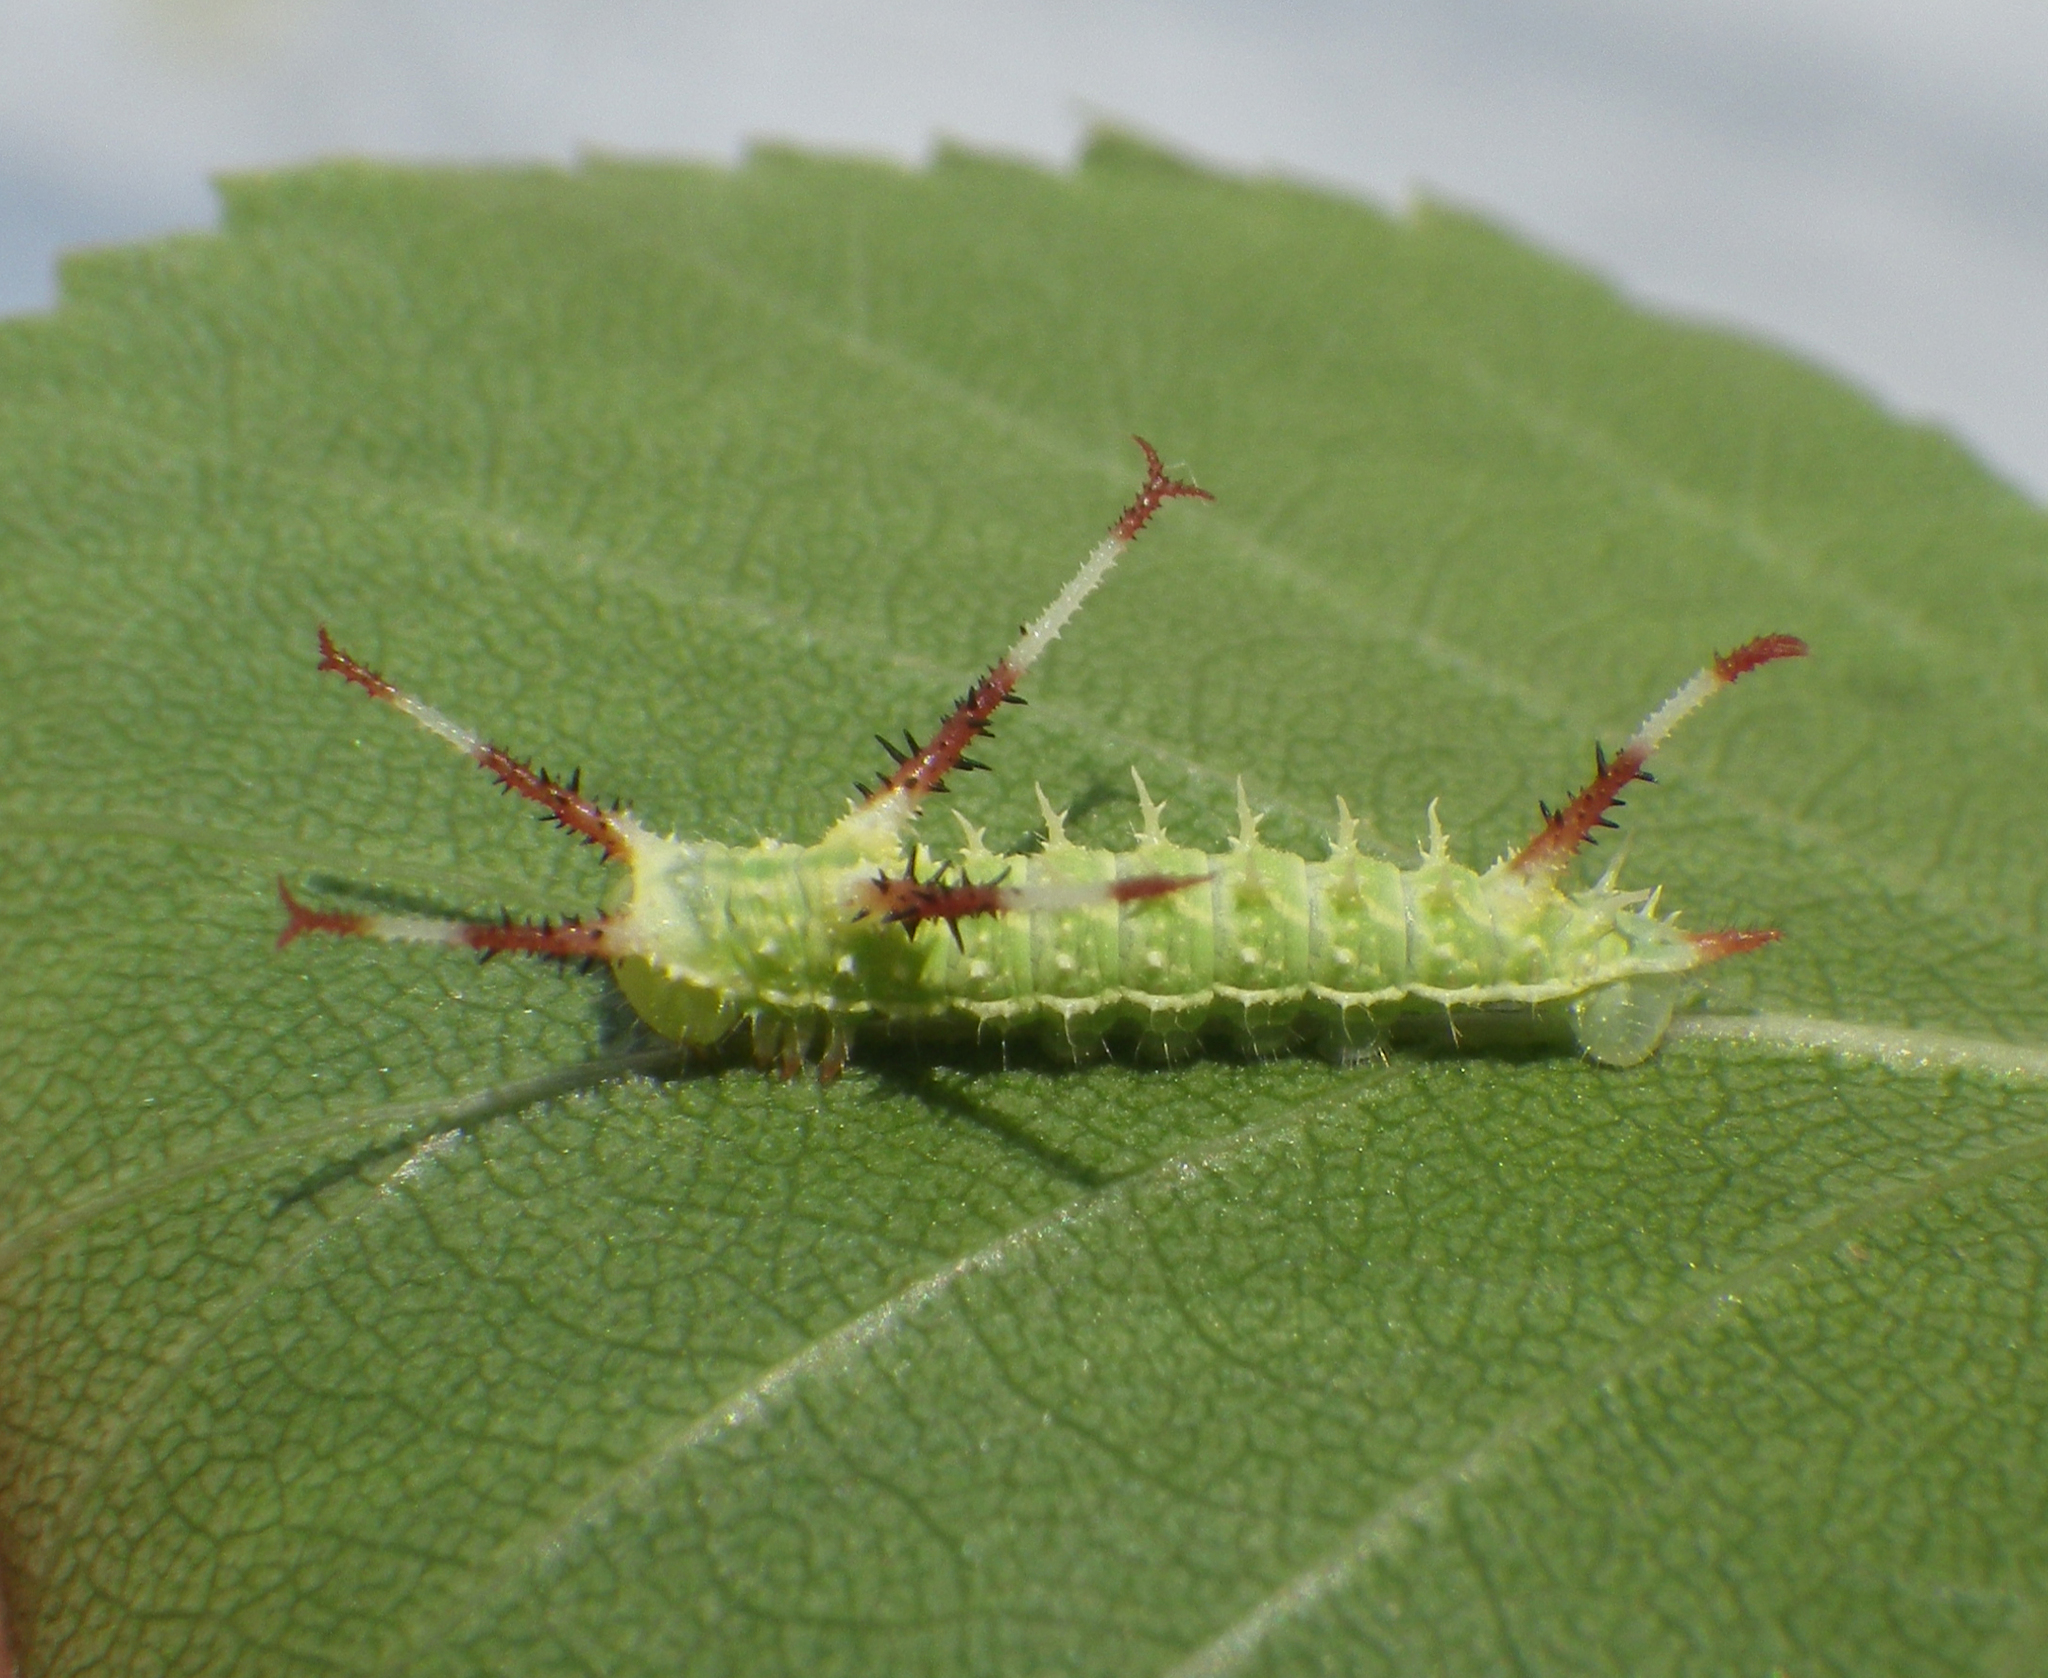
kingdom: Animalia
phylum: Arthropoda
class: Insecta
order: Lepidoptera
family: Saturniidae
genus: Aglia
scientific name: Aglia tau
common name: Tau emperor
